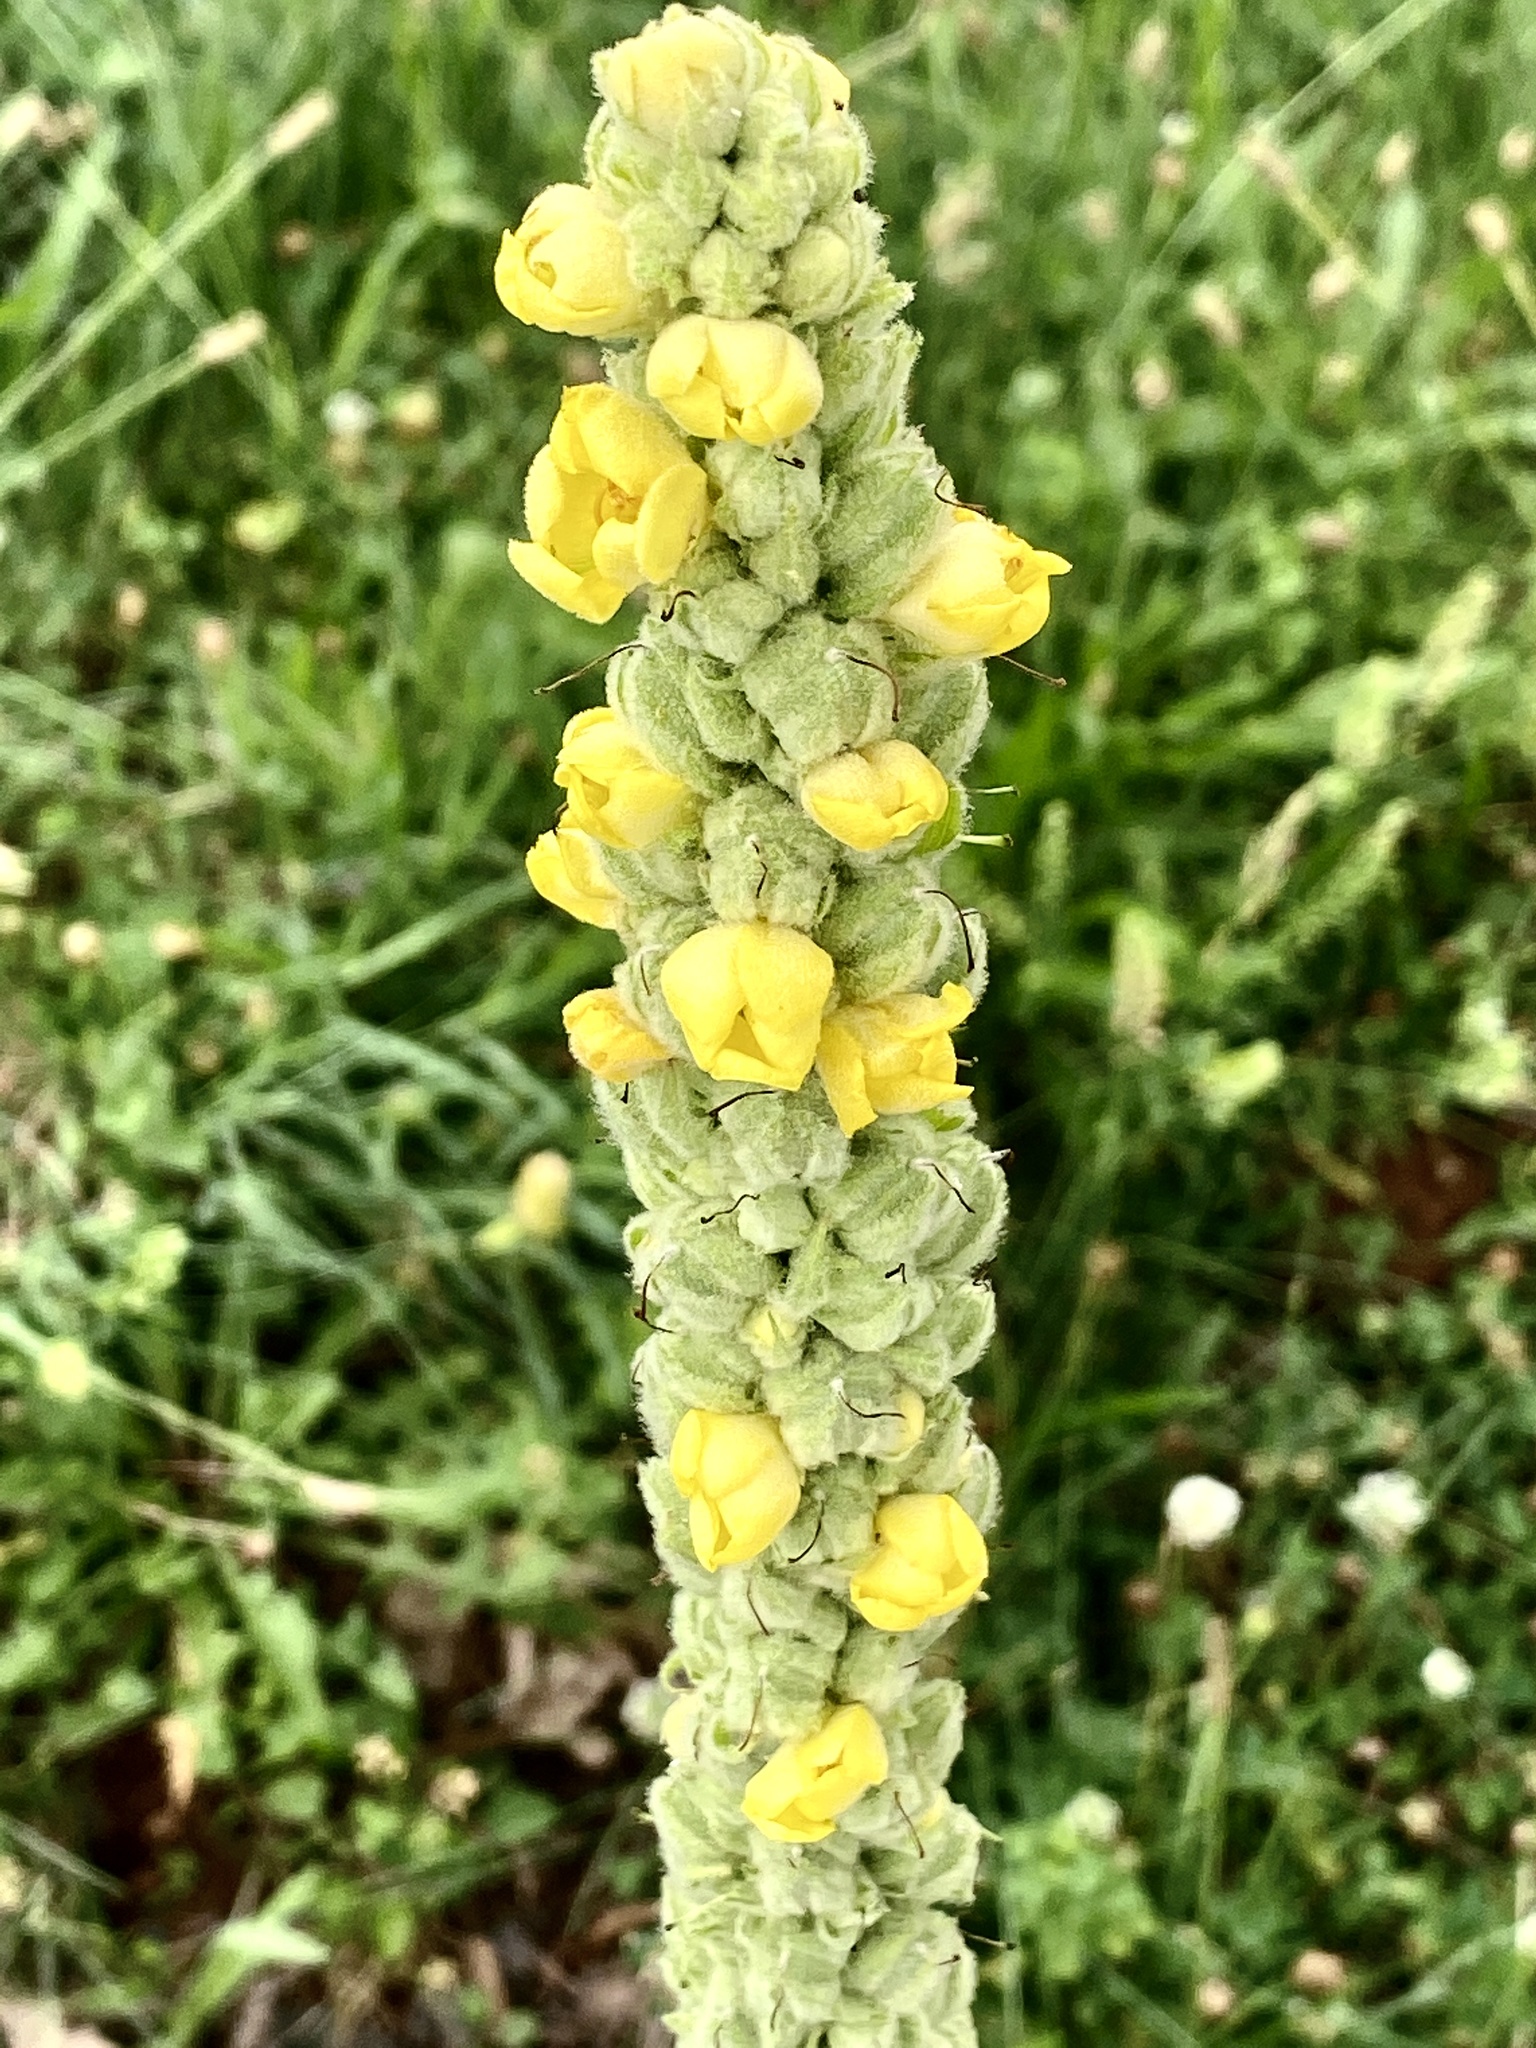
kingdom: Plantae
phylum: Tracheophyta
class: Magnoliopsida
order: Lamiales
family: Scrophulariaceae
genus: Verbascum
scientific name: Verbascum thapsus
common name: Common mullein
